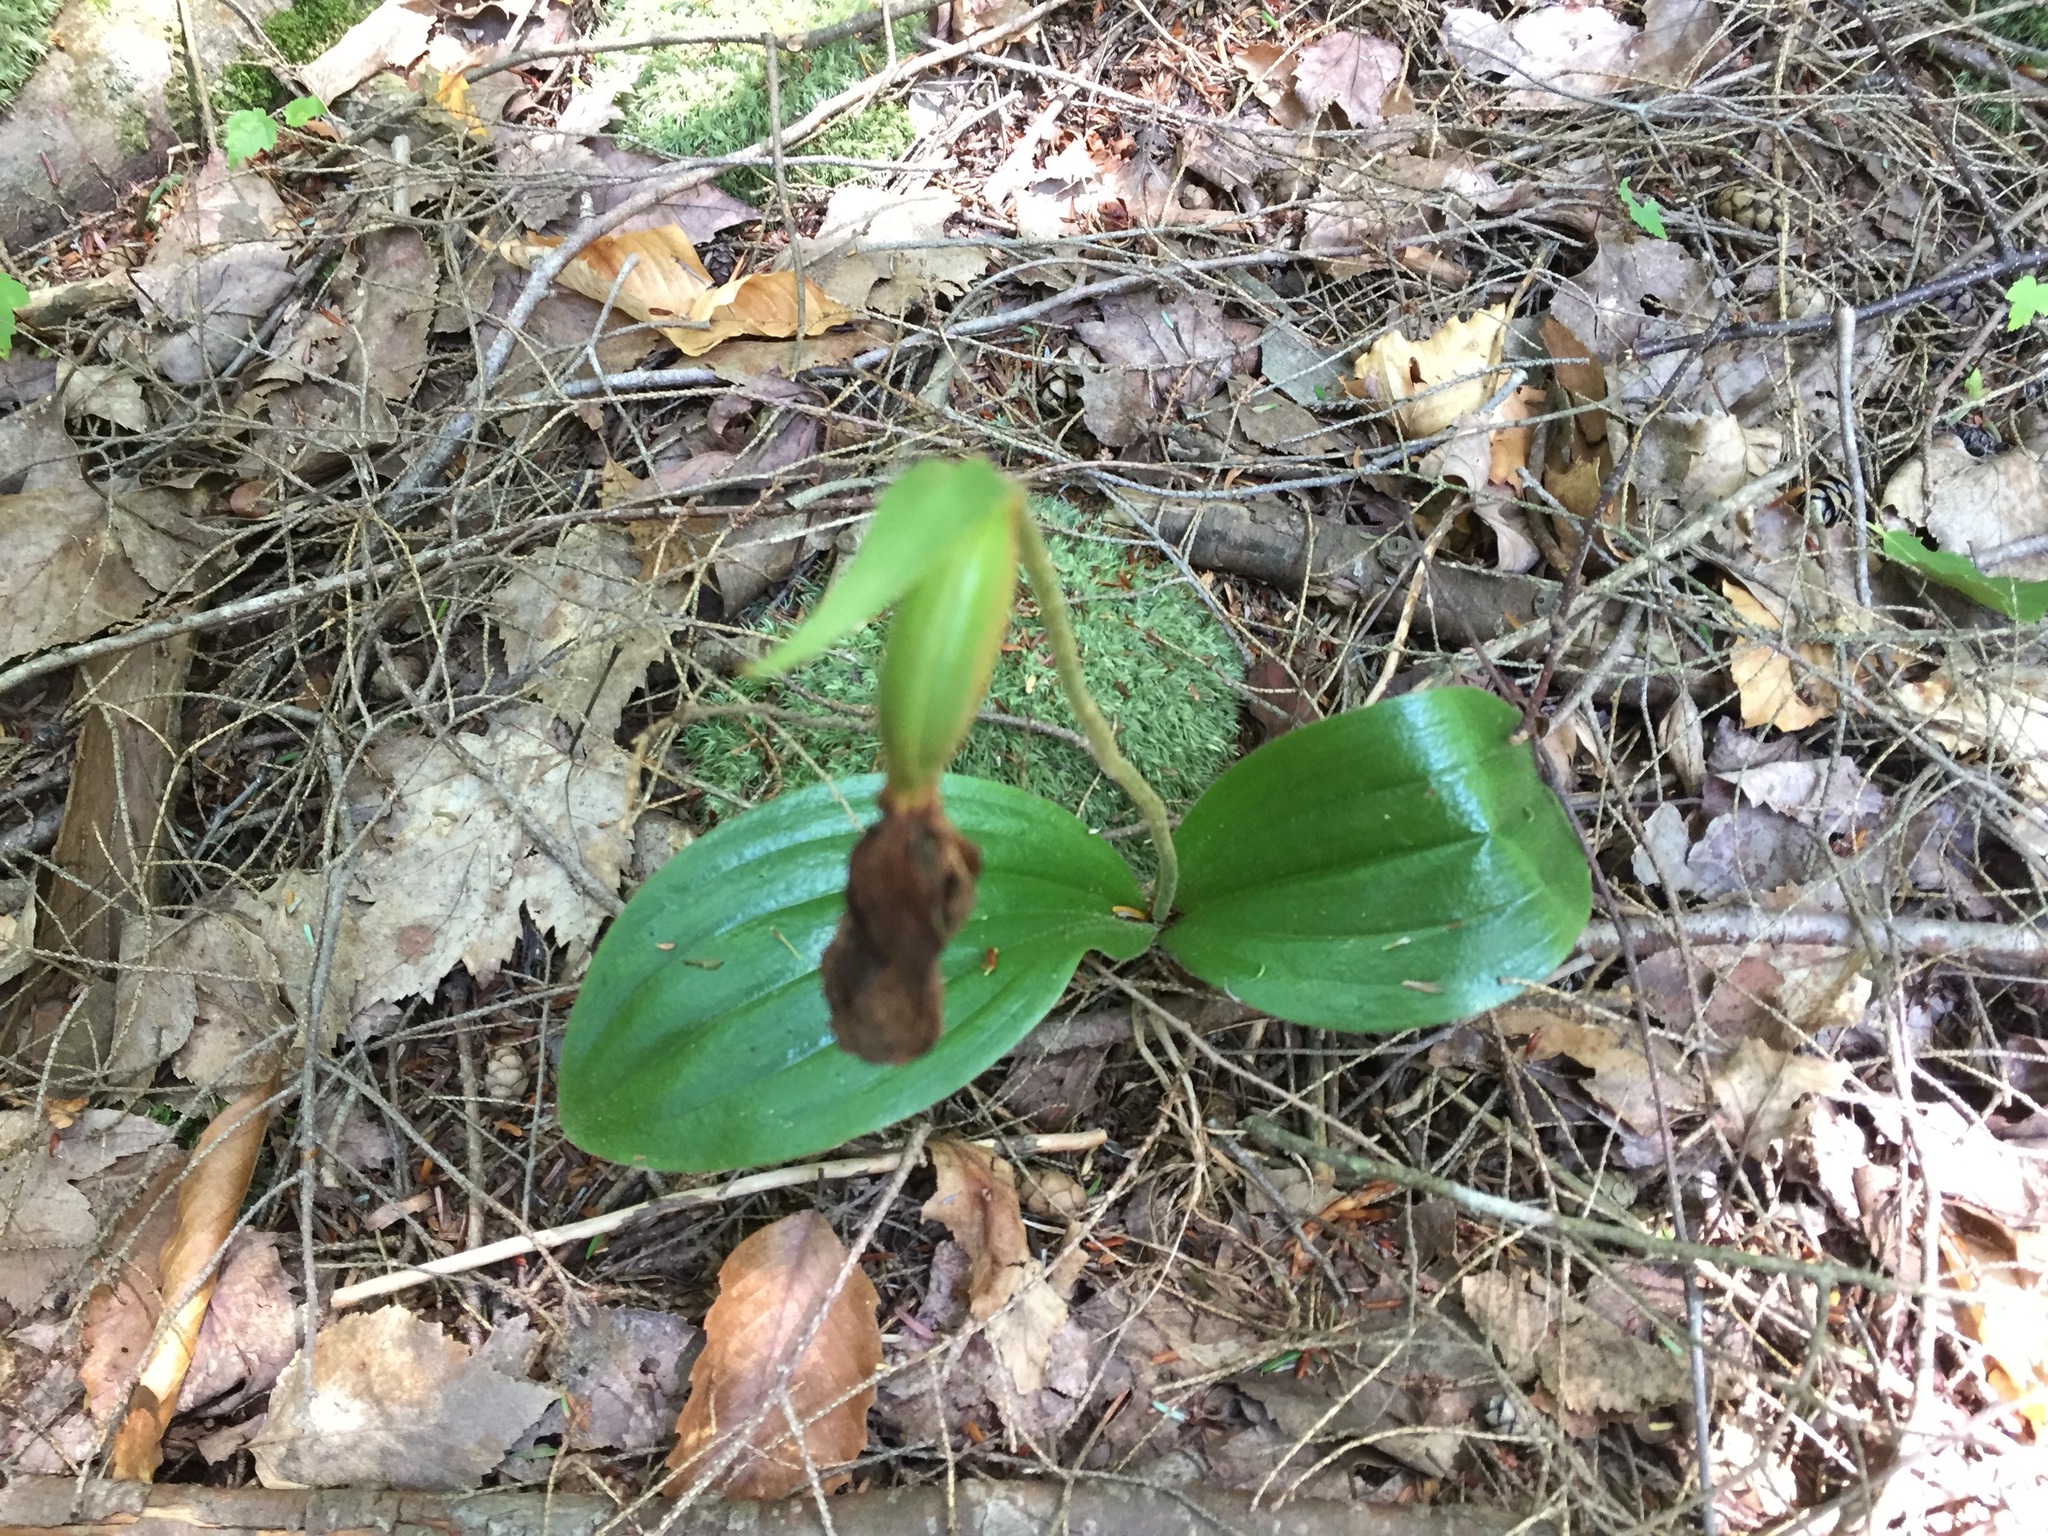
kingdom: Plantae
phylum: Tracheophyta
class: Liliopsida
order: Asparagales
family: Orchidaceae
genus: Cypripedium
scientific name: Cypripedium acaule
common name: Pink lady's-slipper
